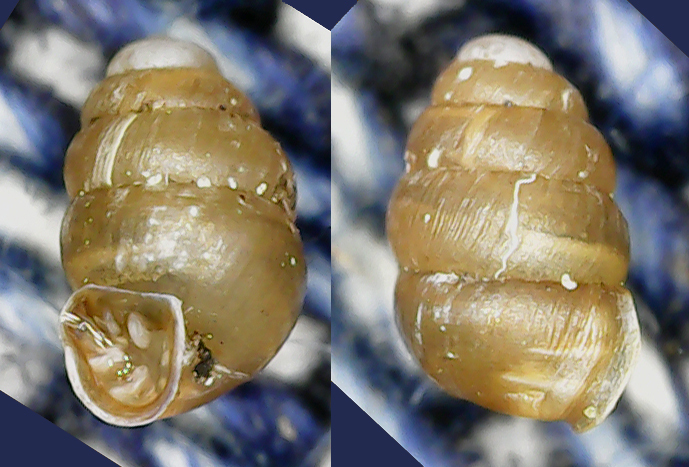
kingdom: Animalia
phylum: Mollusca
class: Gastropoda
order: Stylommatophora
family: Vertiginidae
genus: Vertigo
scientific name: Vertigo pusilla
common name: Wall whorl snail
